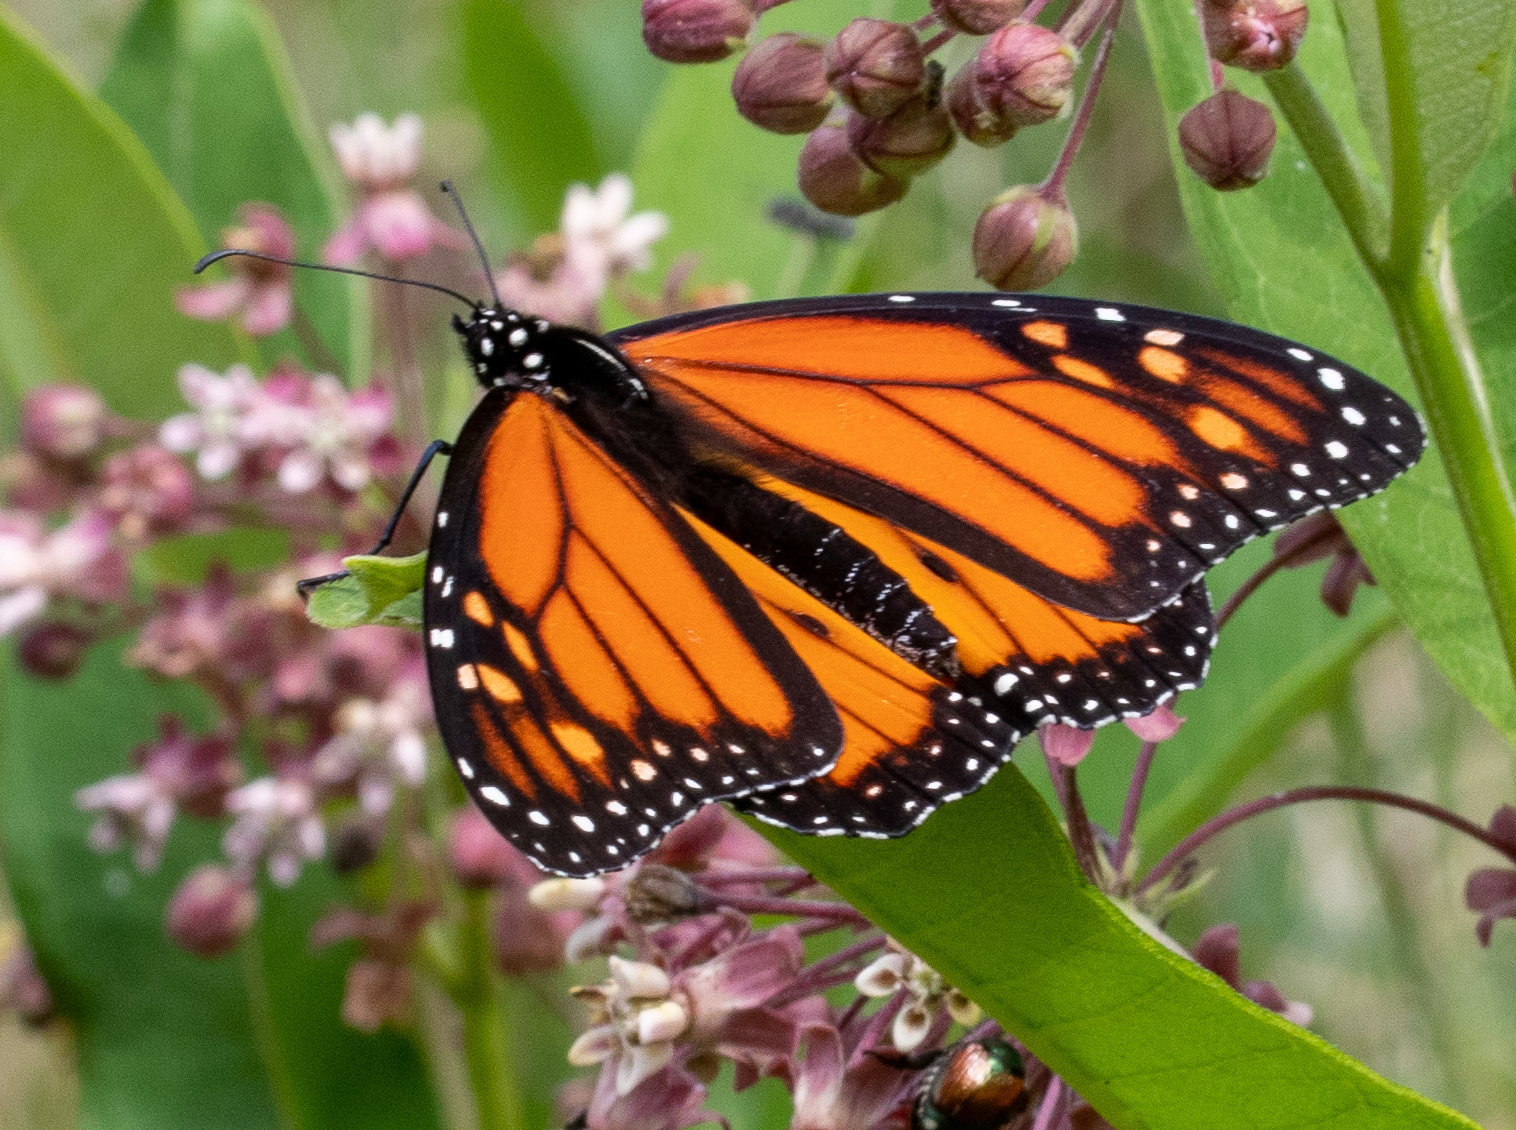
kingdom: Animalia
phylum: Arthropoda
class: Insecta
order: Lepidoptera
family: Nymphalidae
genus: Danaus
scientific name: Danaus plexippus
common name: Monarch
